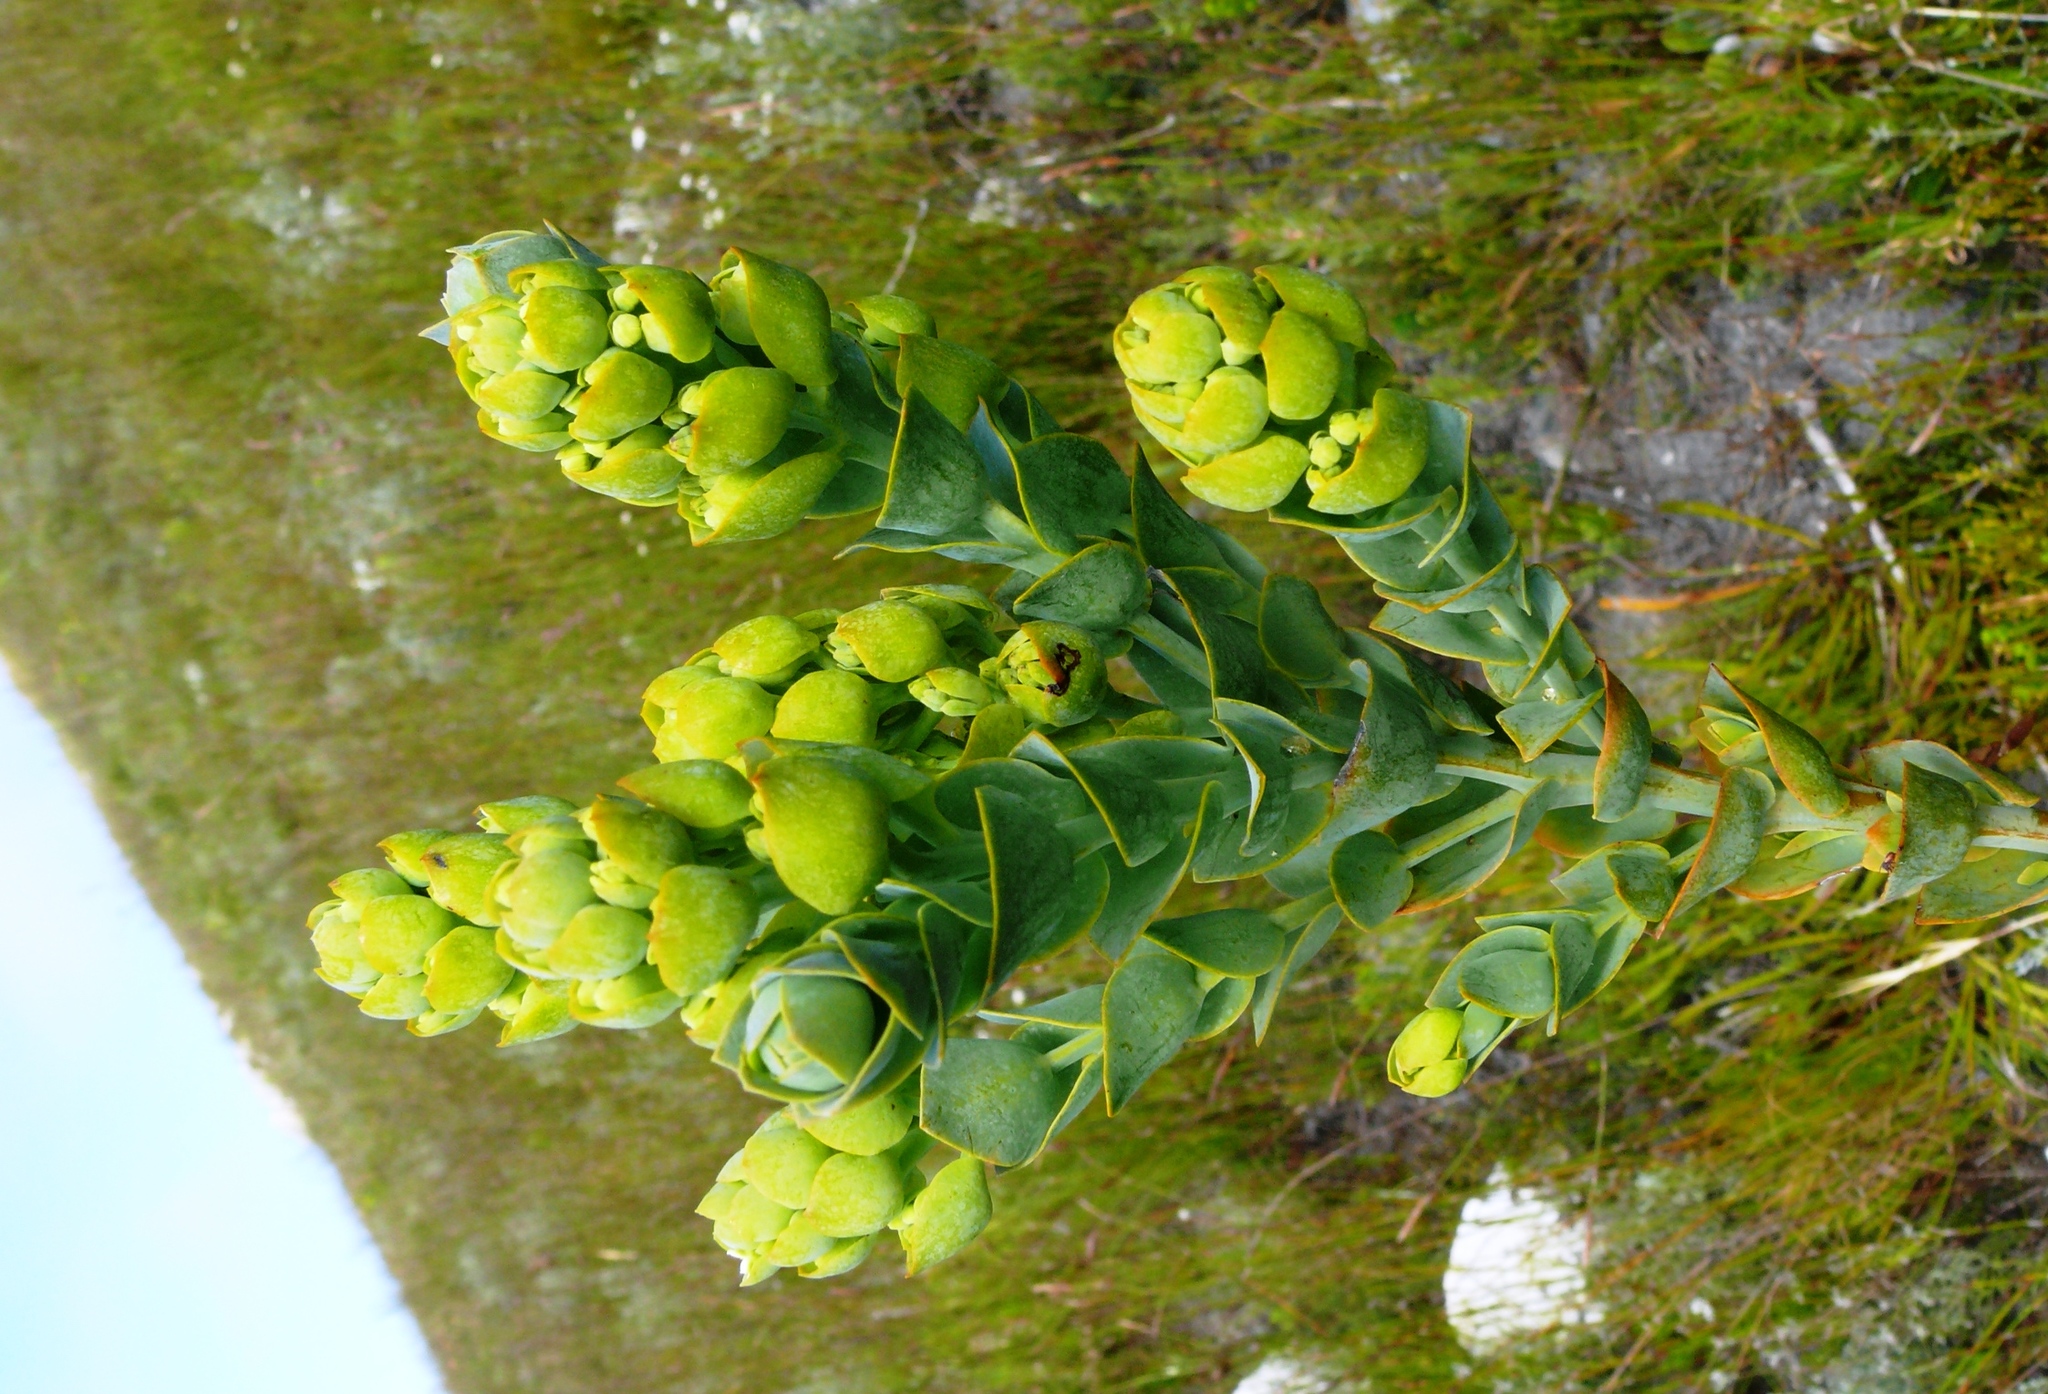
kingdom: Plantae
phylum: Tracheophyta
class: Magnoliopsida
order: Santalales
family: Thesiaceae
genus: Thesium
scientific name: Thesium euphorbioides
